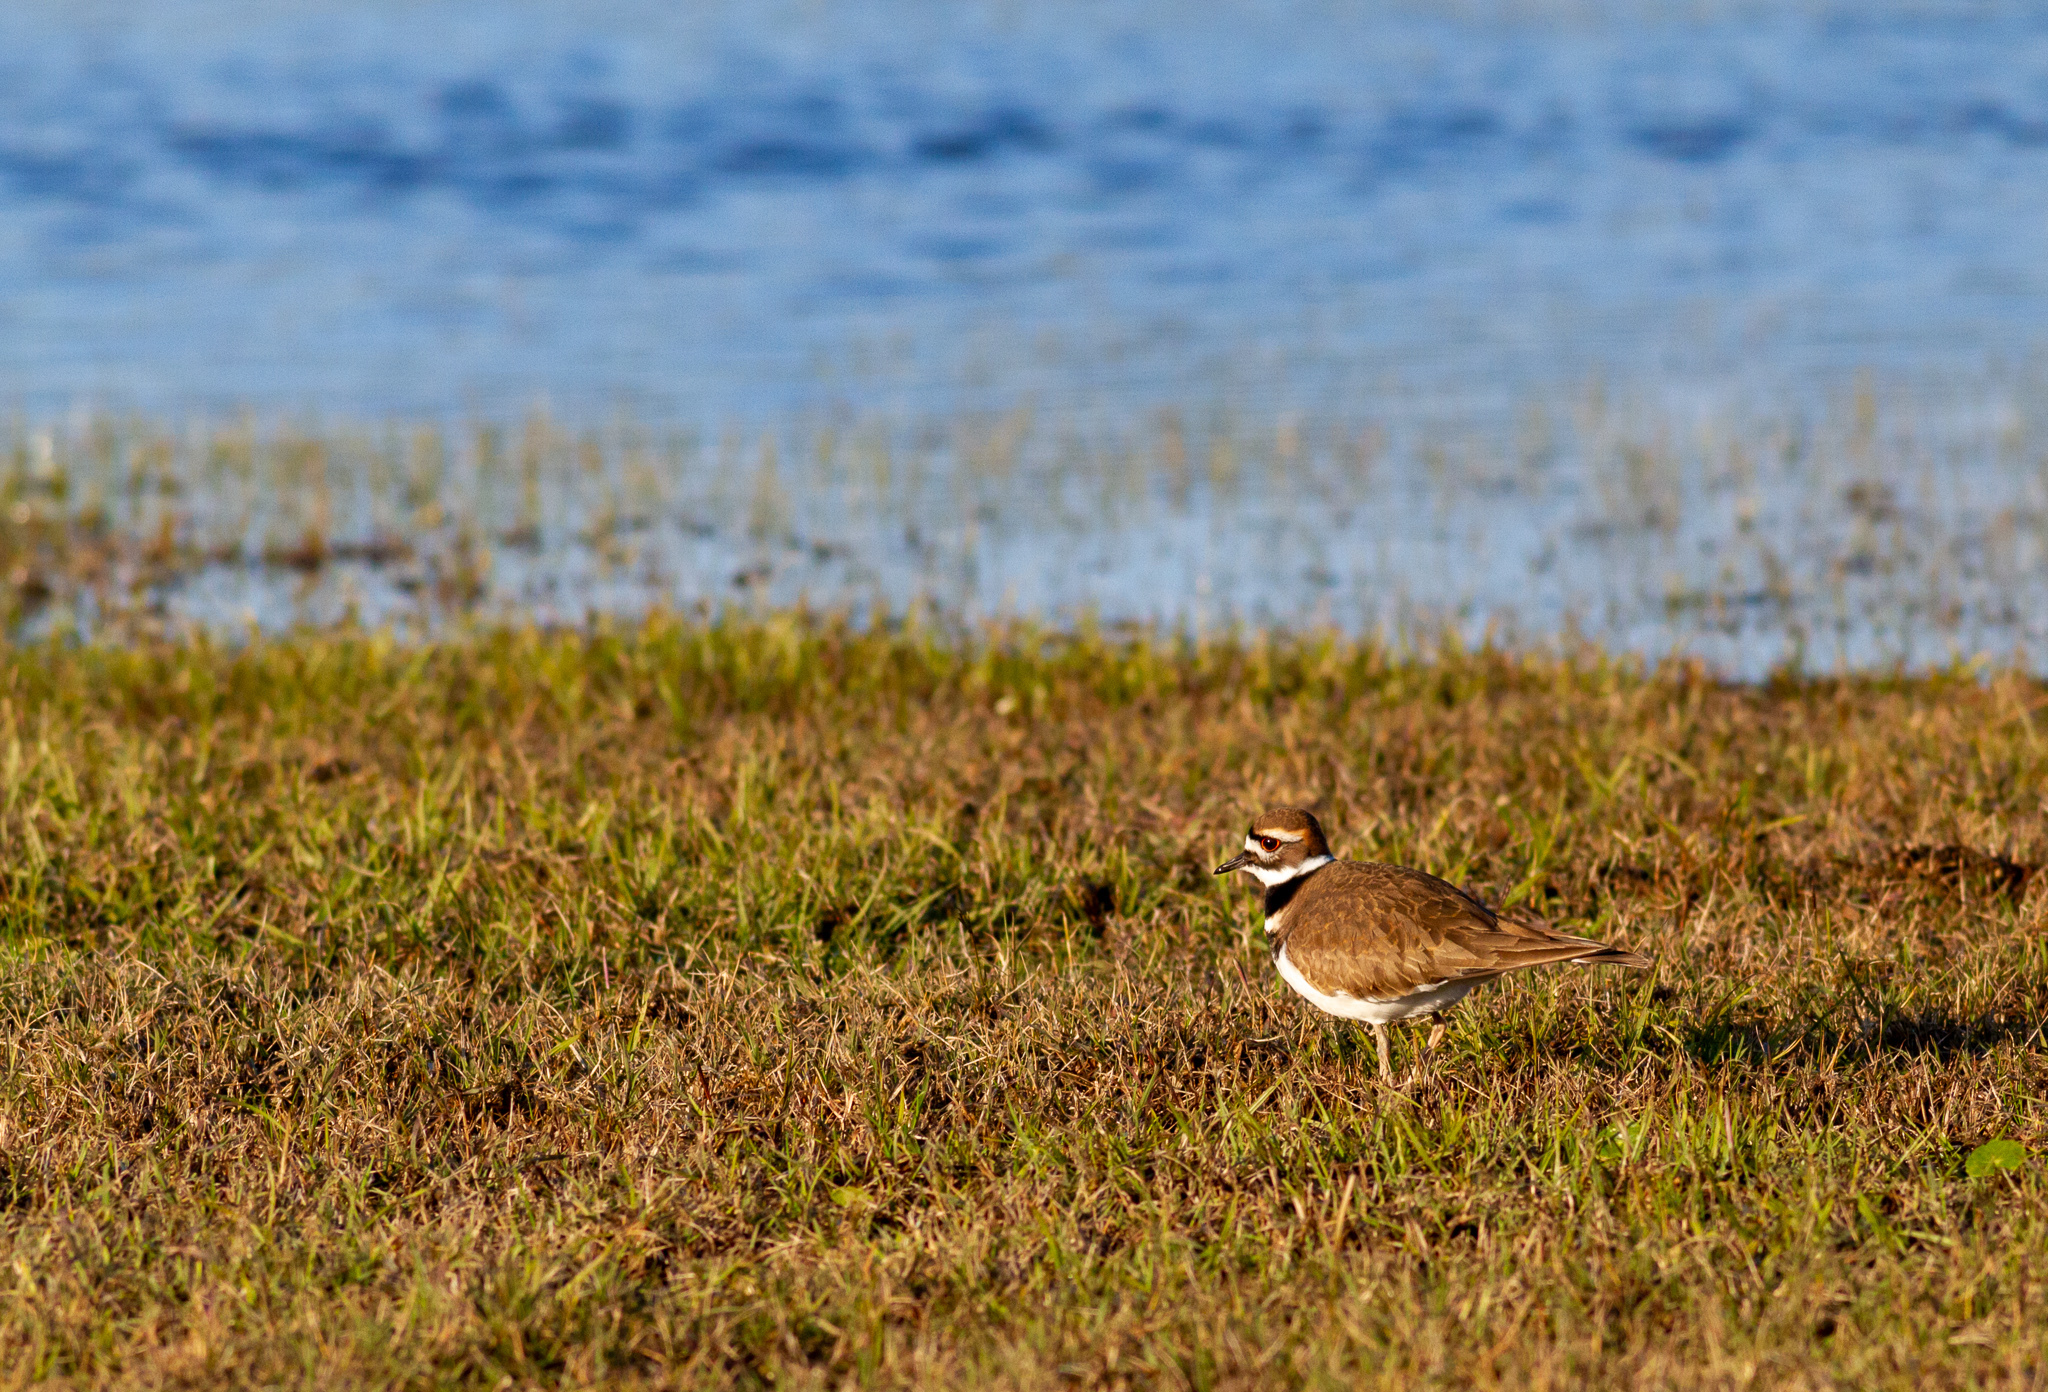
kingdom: Animalia
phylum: Chordata
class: Aves
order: Charadriiformes
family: Charadriidae
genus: Charadrius
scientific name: Charadrius vociferus
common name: Killdeer
